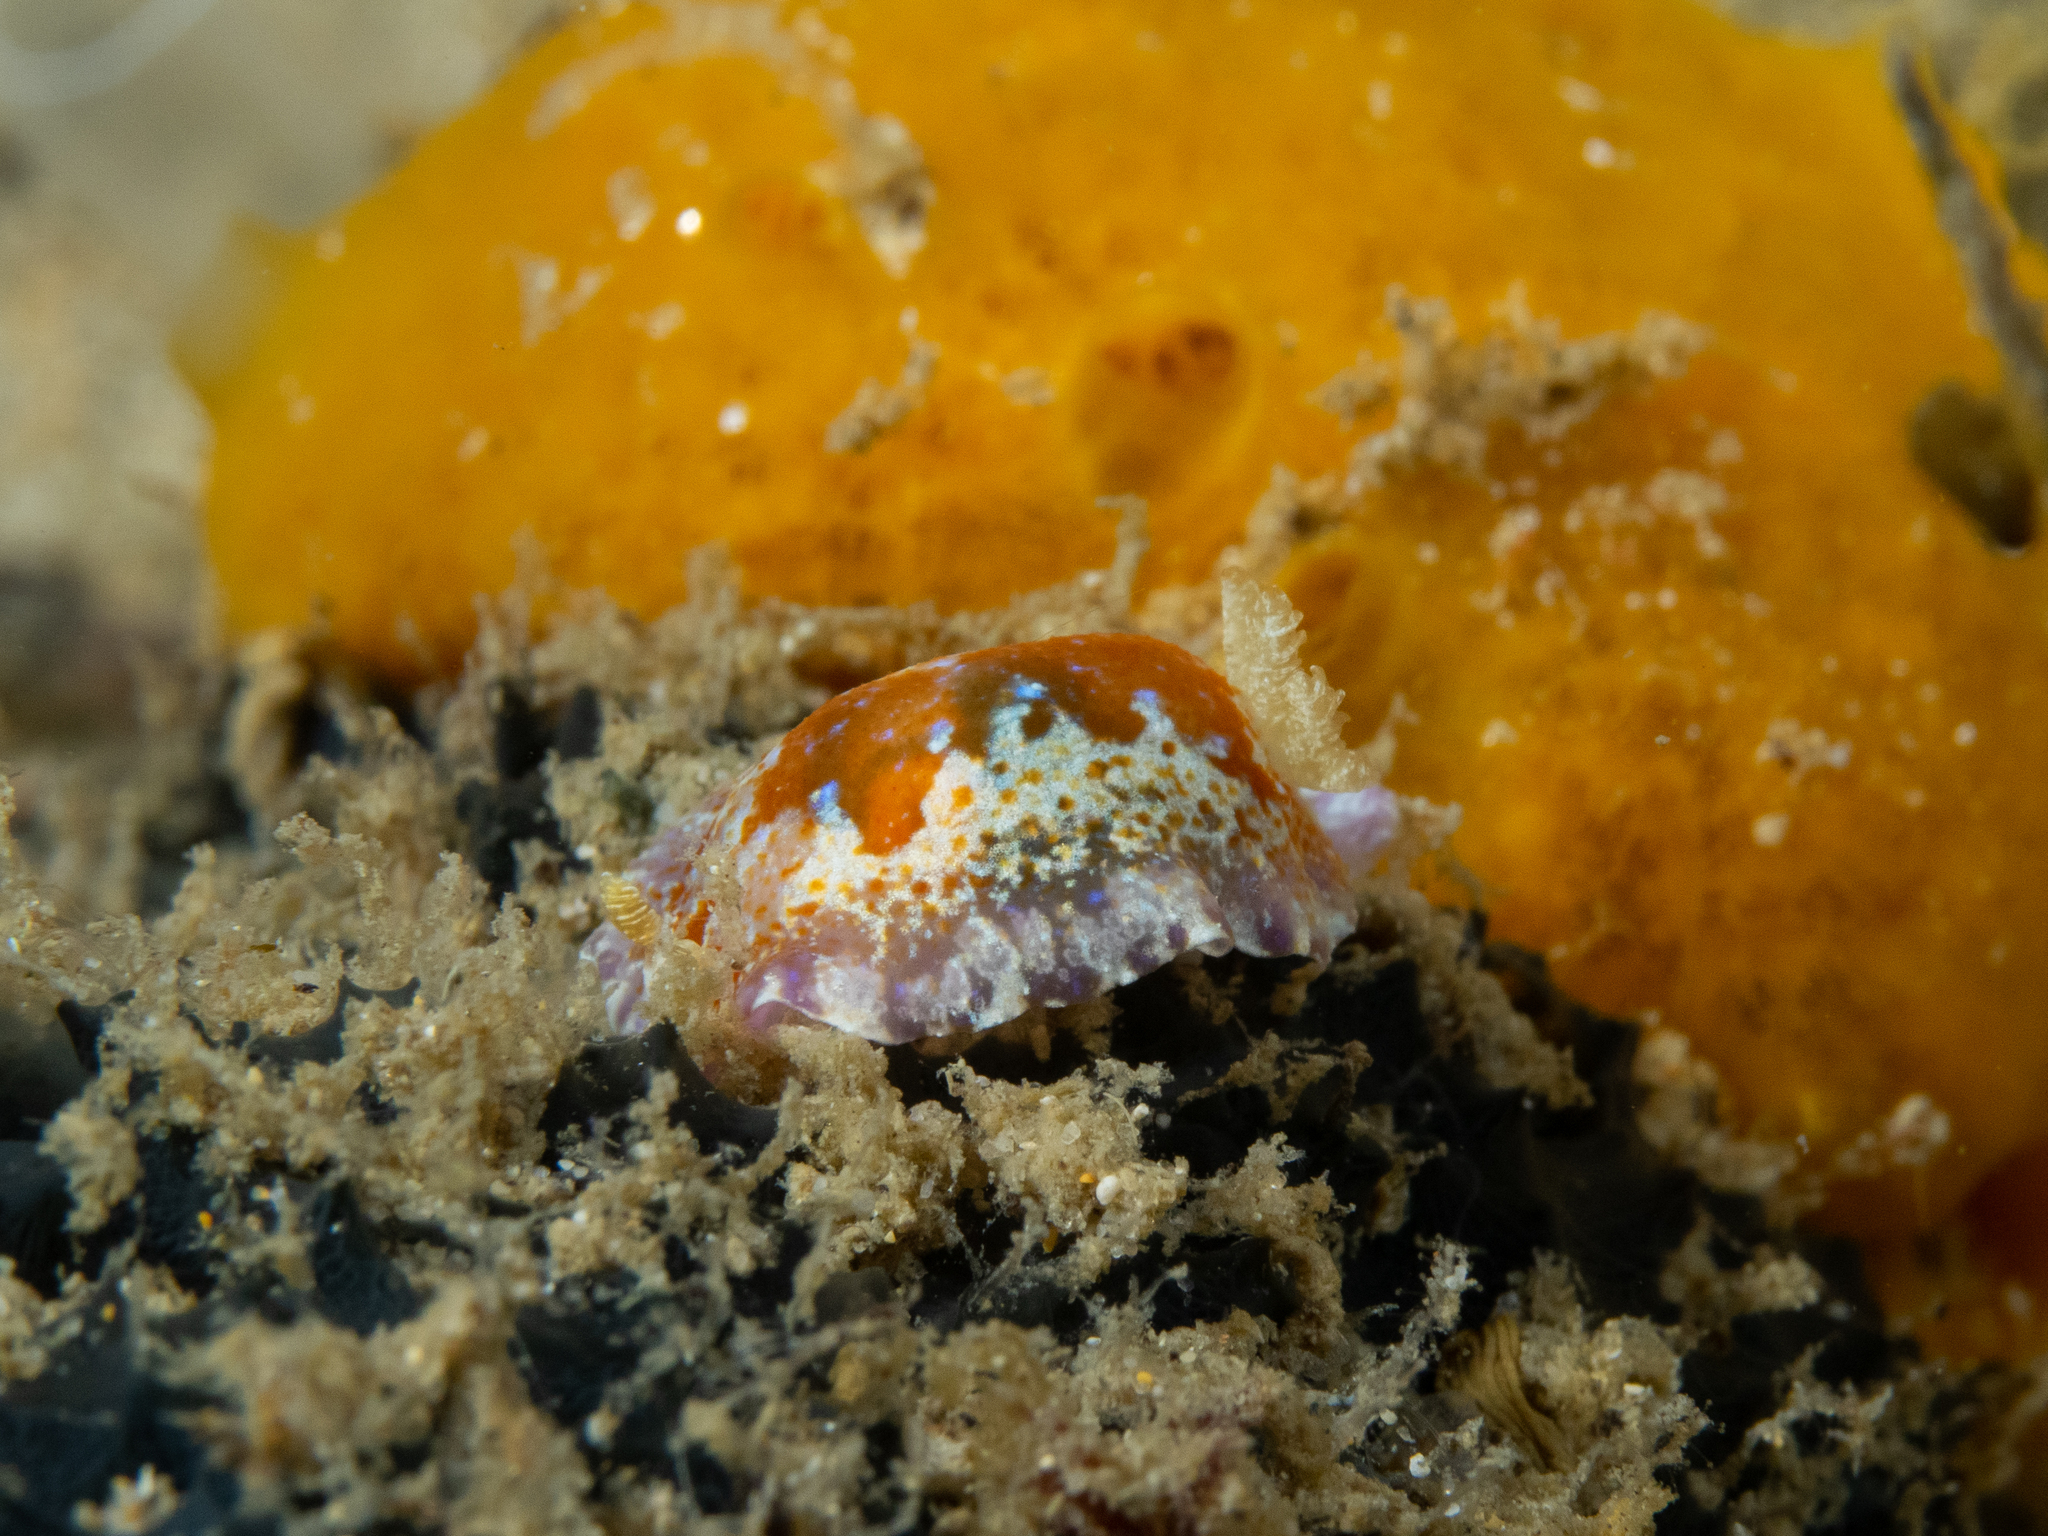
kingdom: Animalia
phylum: Mollusca
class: Gastropoda
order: Nudibranchia
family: Chromodorididae
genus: Chromodoris
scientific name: Chromodoris alternata
